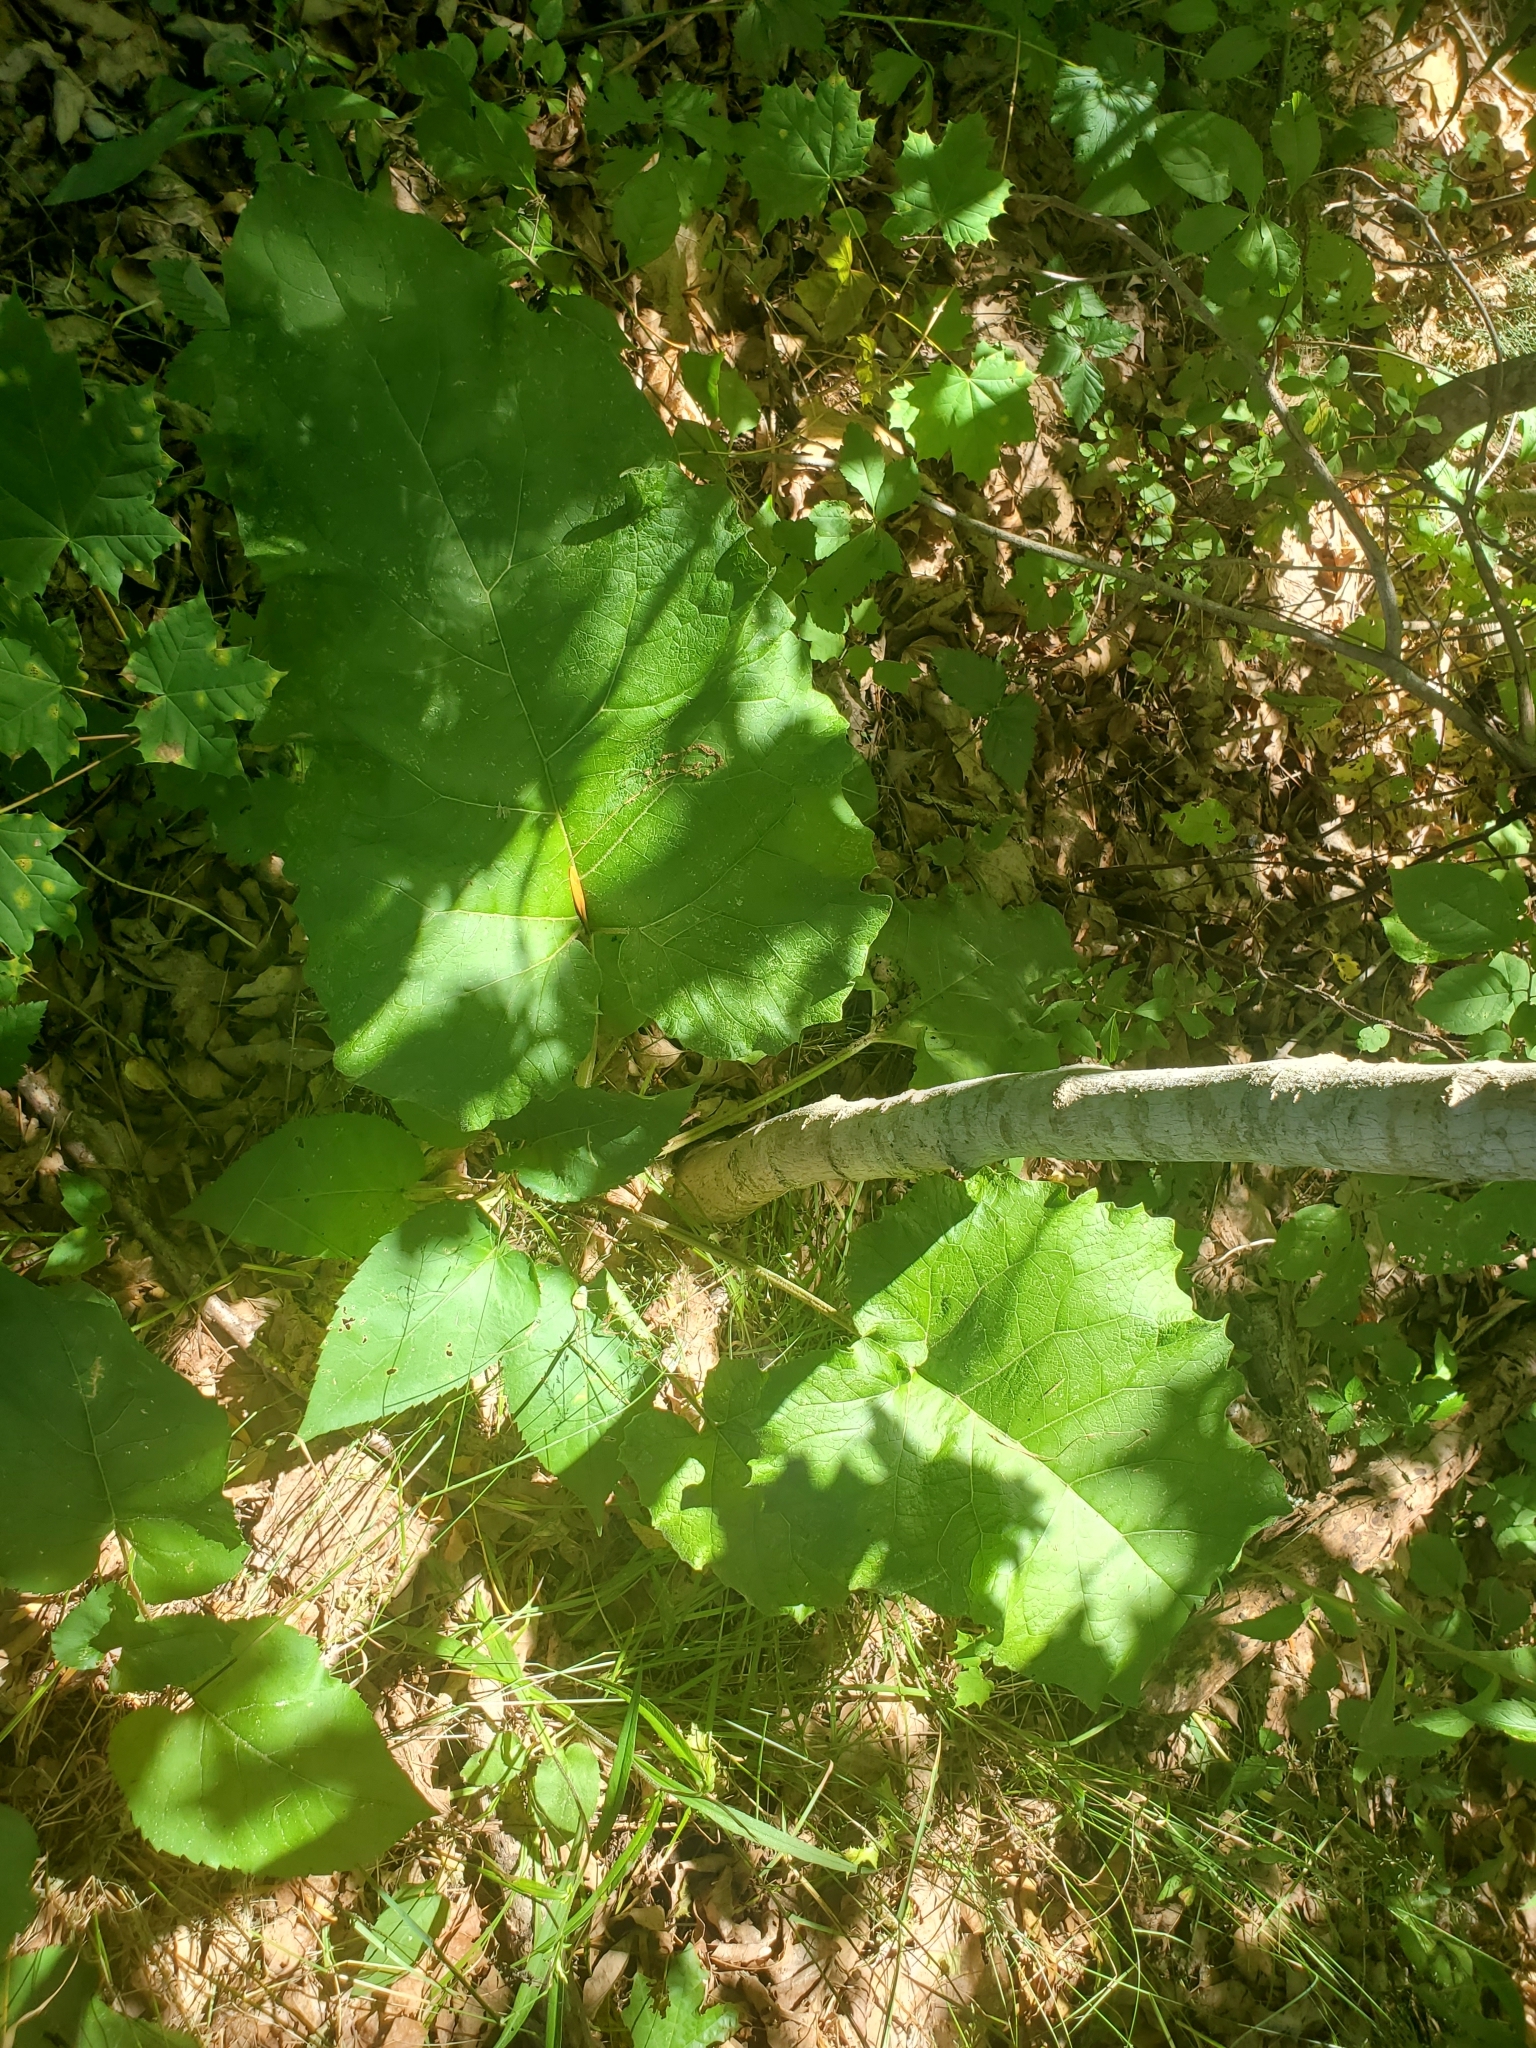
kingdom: Plantae
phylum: Tracheophyta
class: Magnoliopsida
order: Asterales
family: Asteraceae
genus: Arctium
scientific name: Arctium
